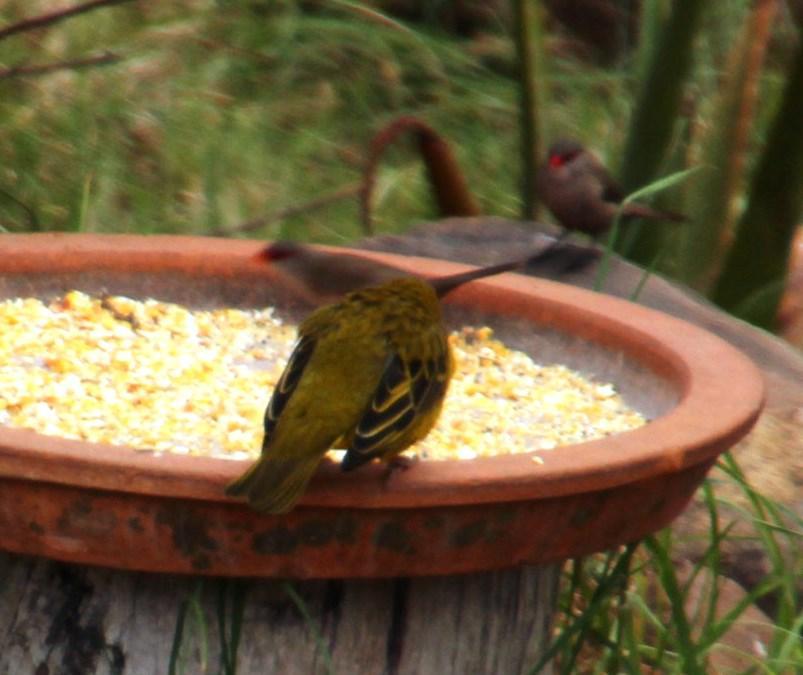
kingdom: Animalia
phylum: Chordata
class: Aves
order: Passeriformes
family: Ploceidae
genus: Ploceus
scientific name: Ploceus capensis
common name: Cape weaver
